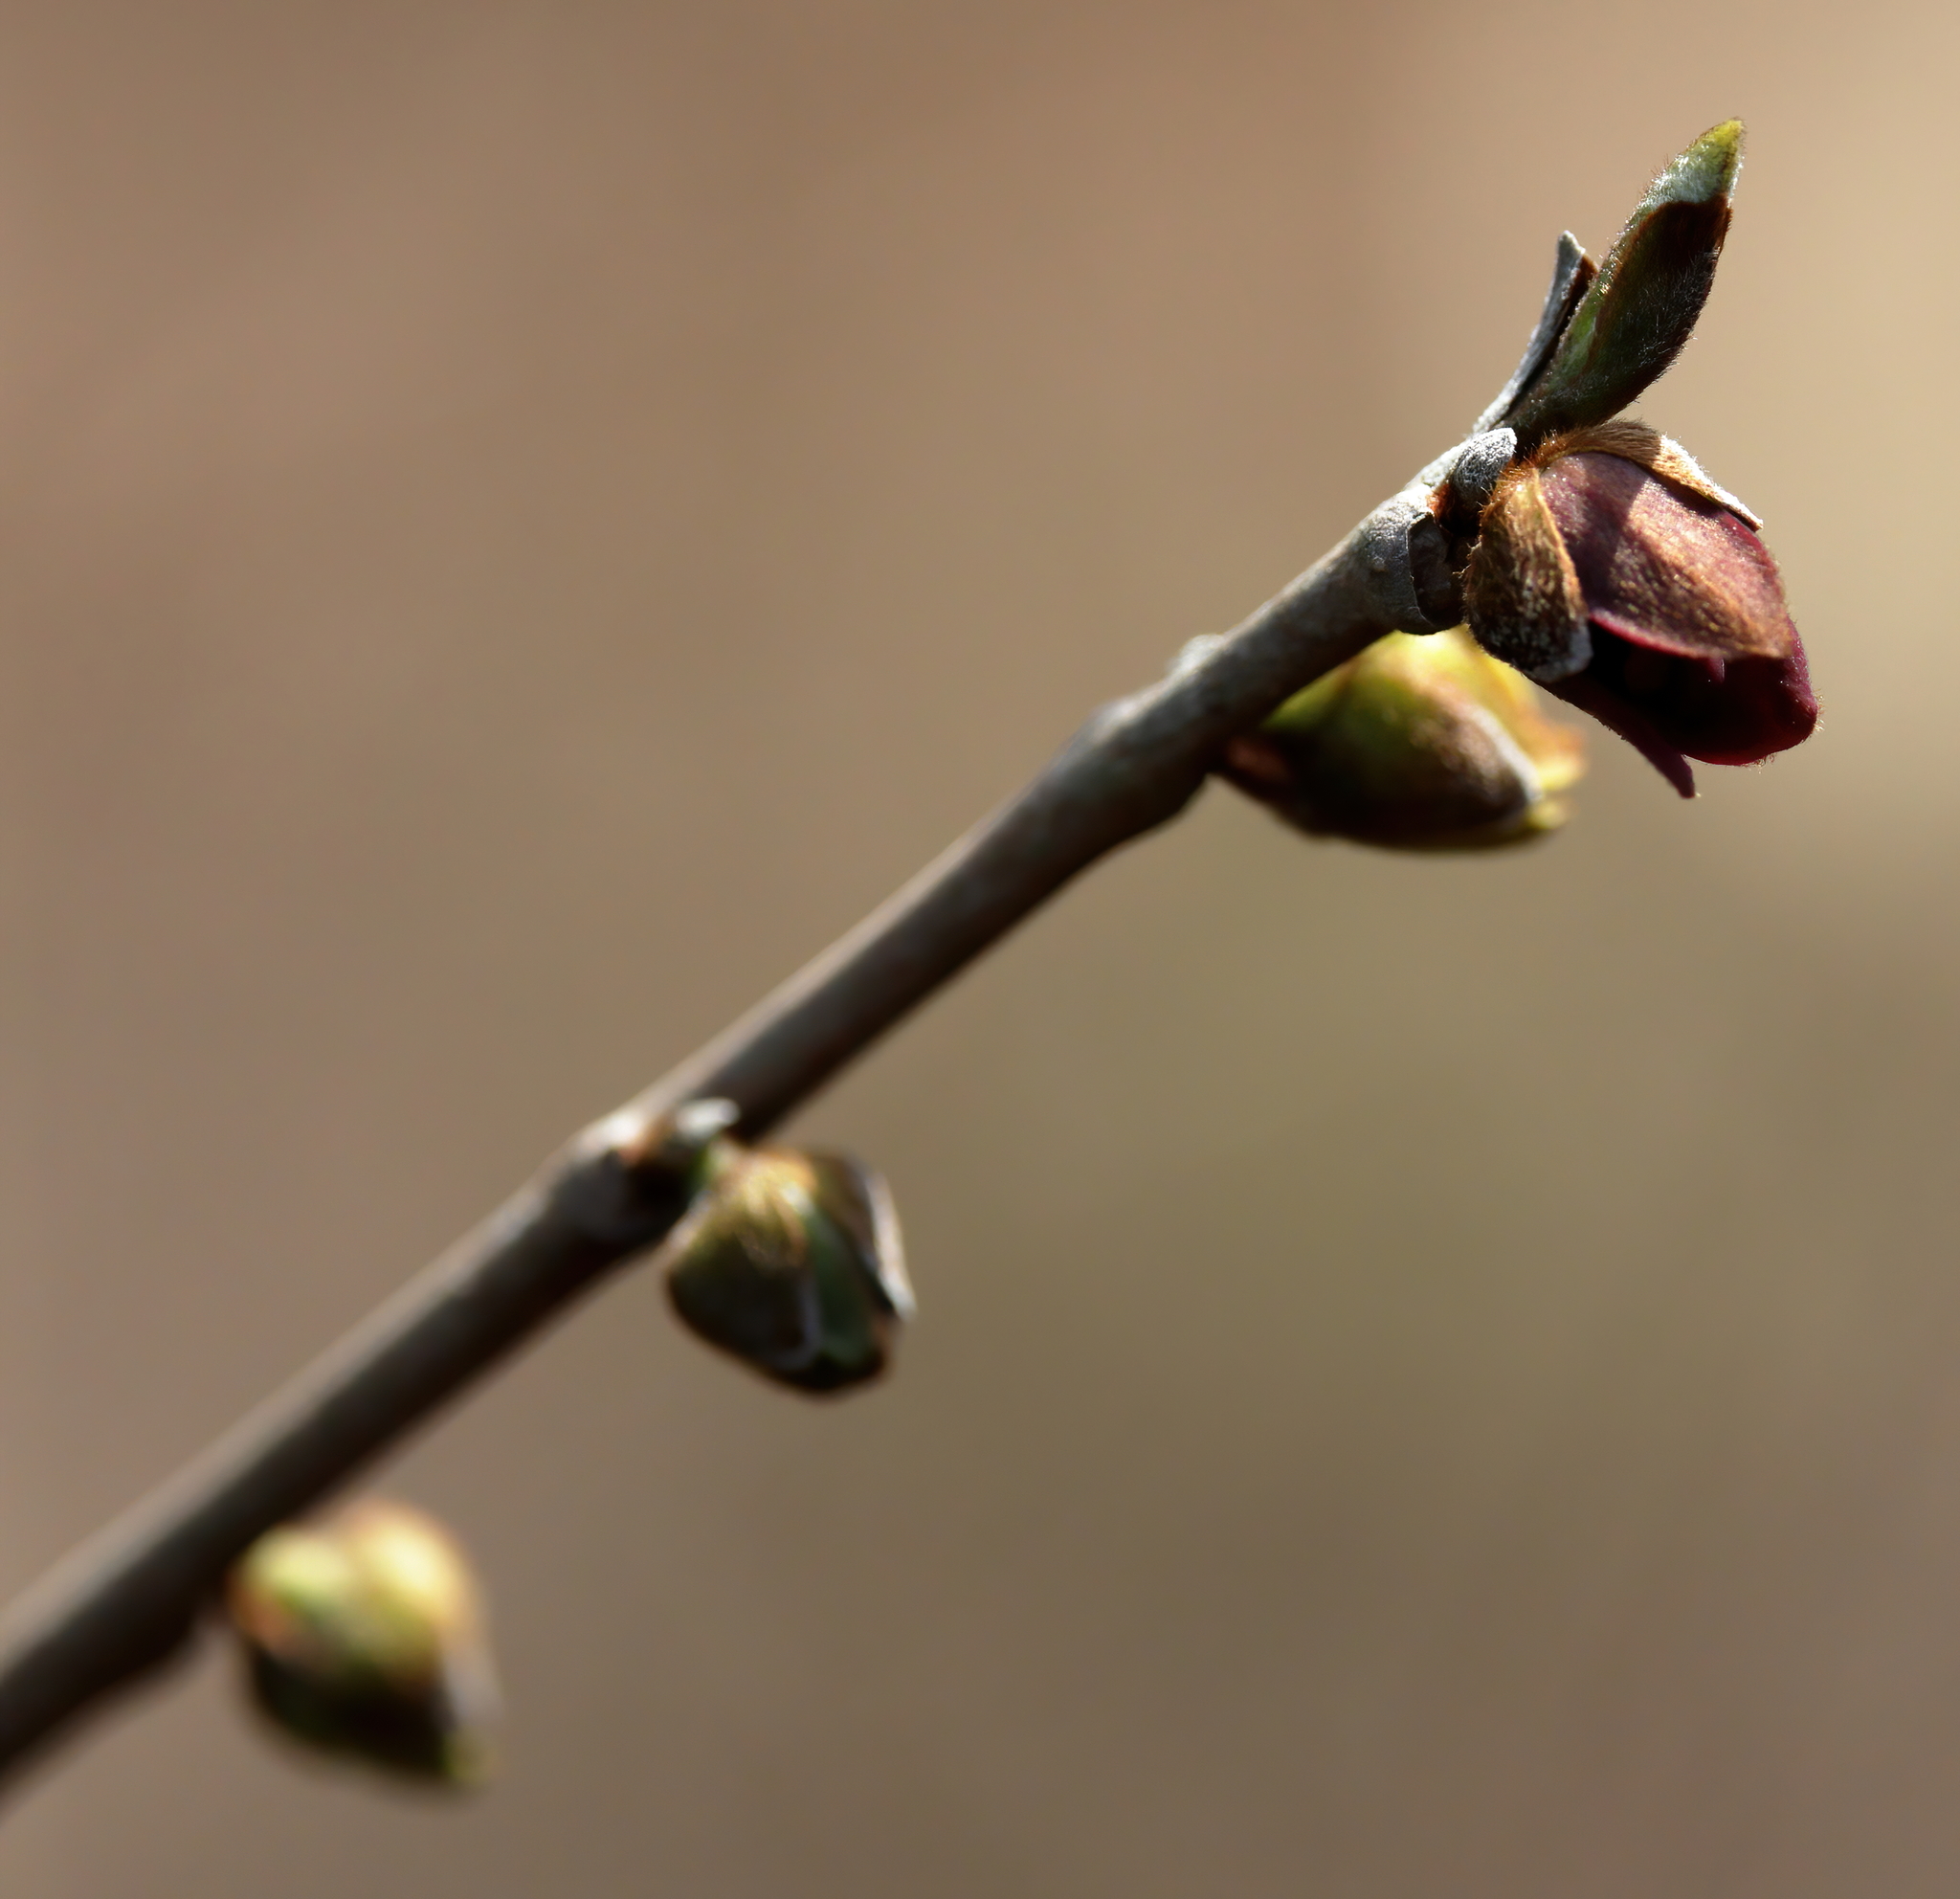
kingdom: Plantae
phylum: Tracheophyta
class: Magnoliopsida
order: Magnoliales
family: Annonaceae
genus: Asimina
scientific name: Asimina parviflora
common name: Dwarf pawpaw
